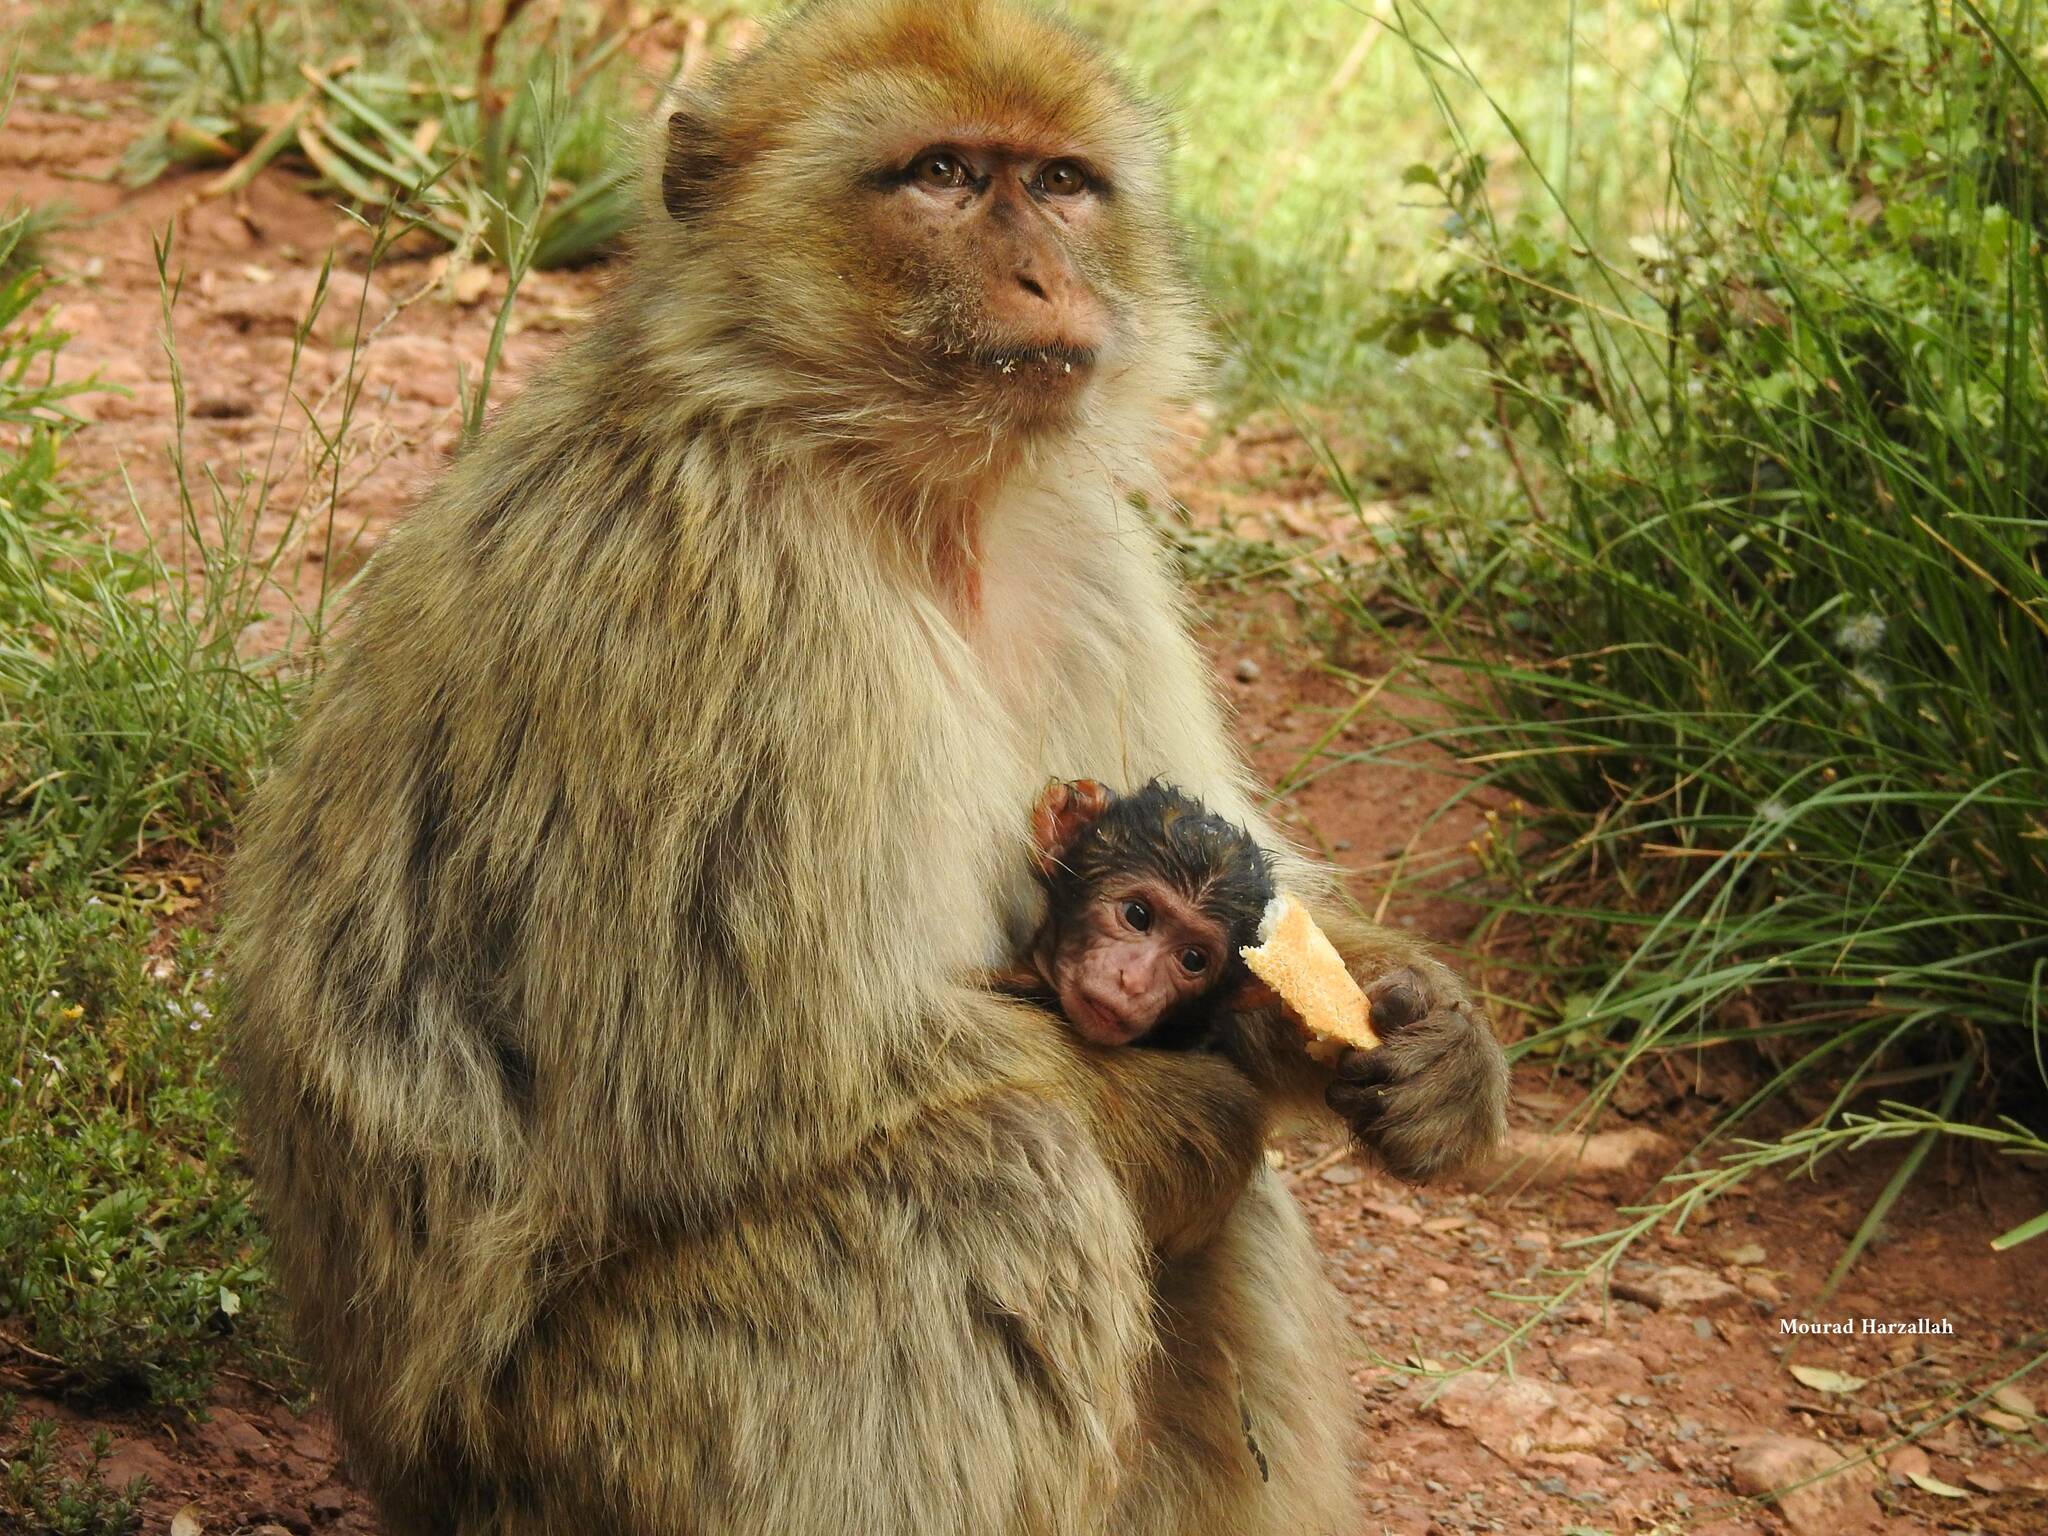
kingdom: Animalia
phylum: Chordata
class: Mammalia
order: Primates
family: Cercopithecidae
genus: Macaca
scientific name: Macaca sylvanus
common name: Barbary macaque
